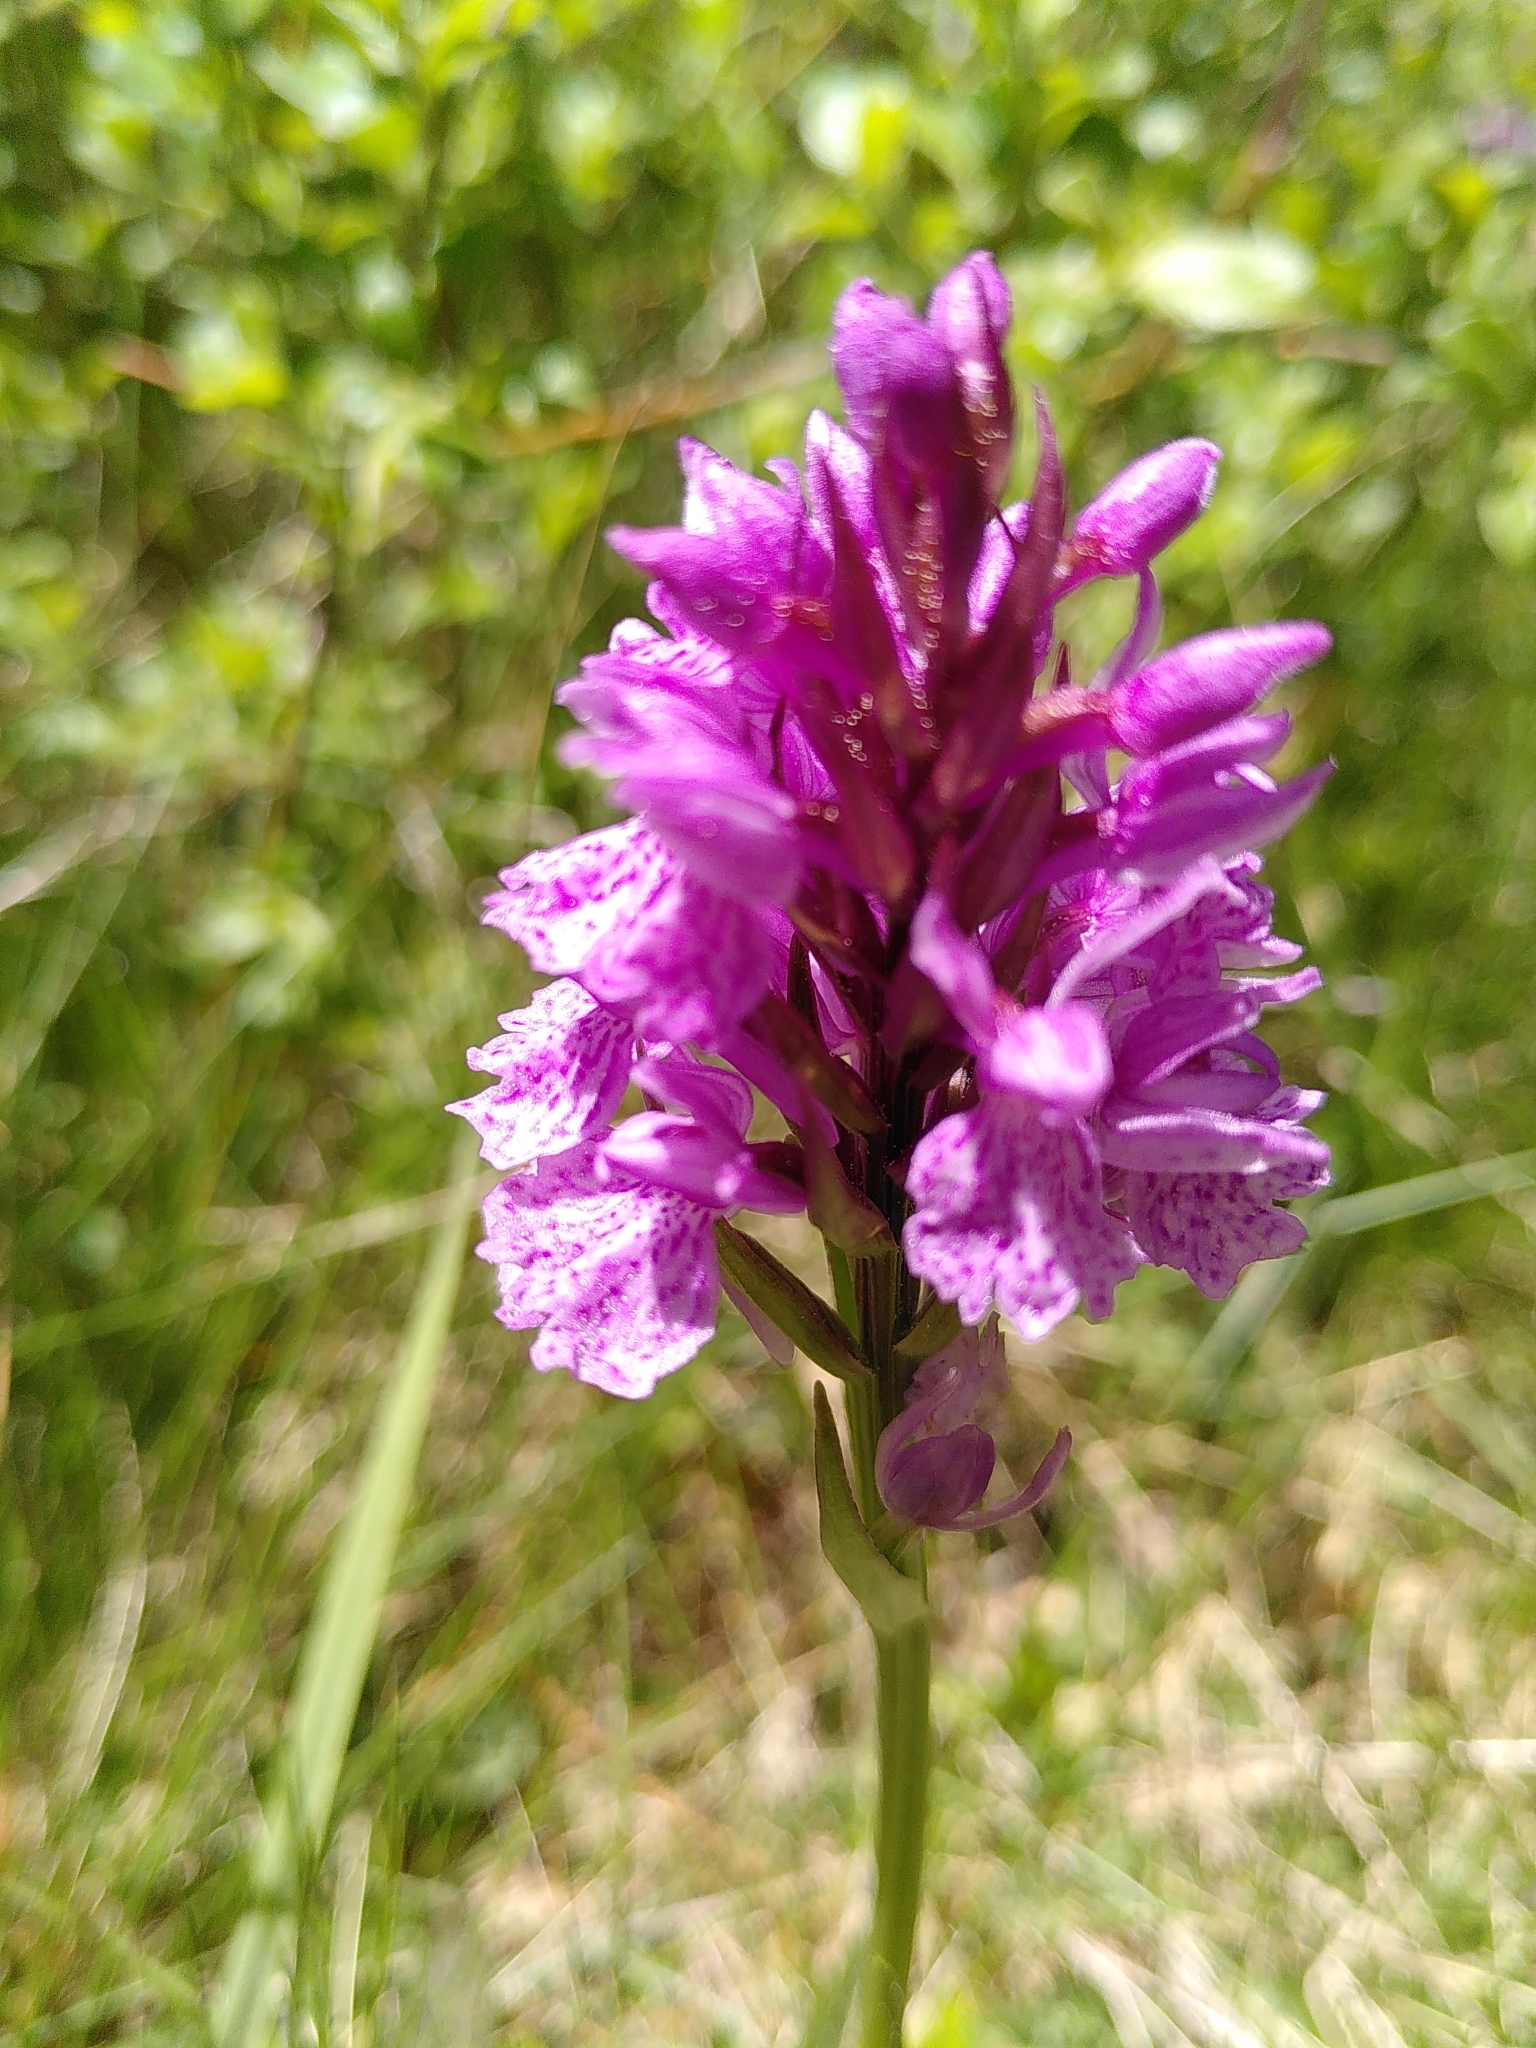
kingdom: Plantae
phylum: Tracheophyta
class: Liliopsida
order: Asparagales
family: Orchidaceae
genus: Dactylorhiza
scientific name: Dactylorhiza maculata
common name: Heath spotted-orchid
